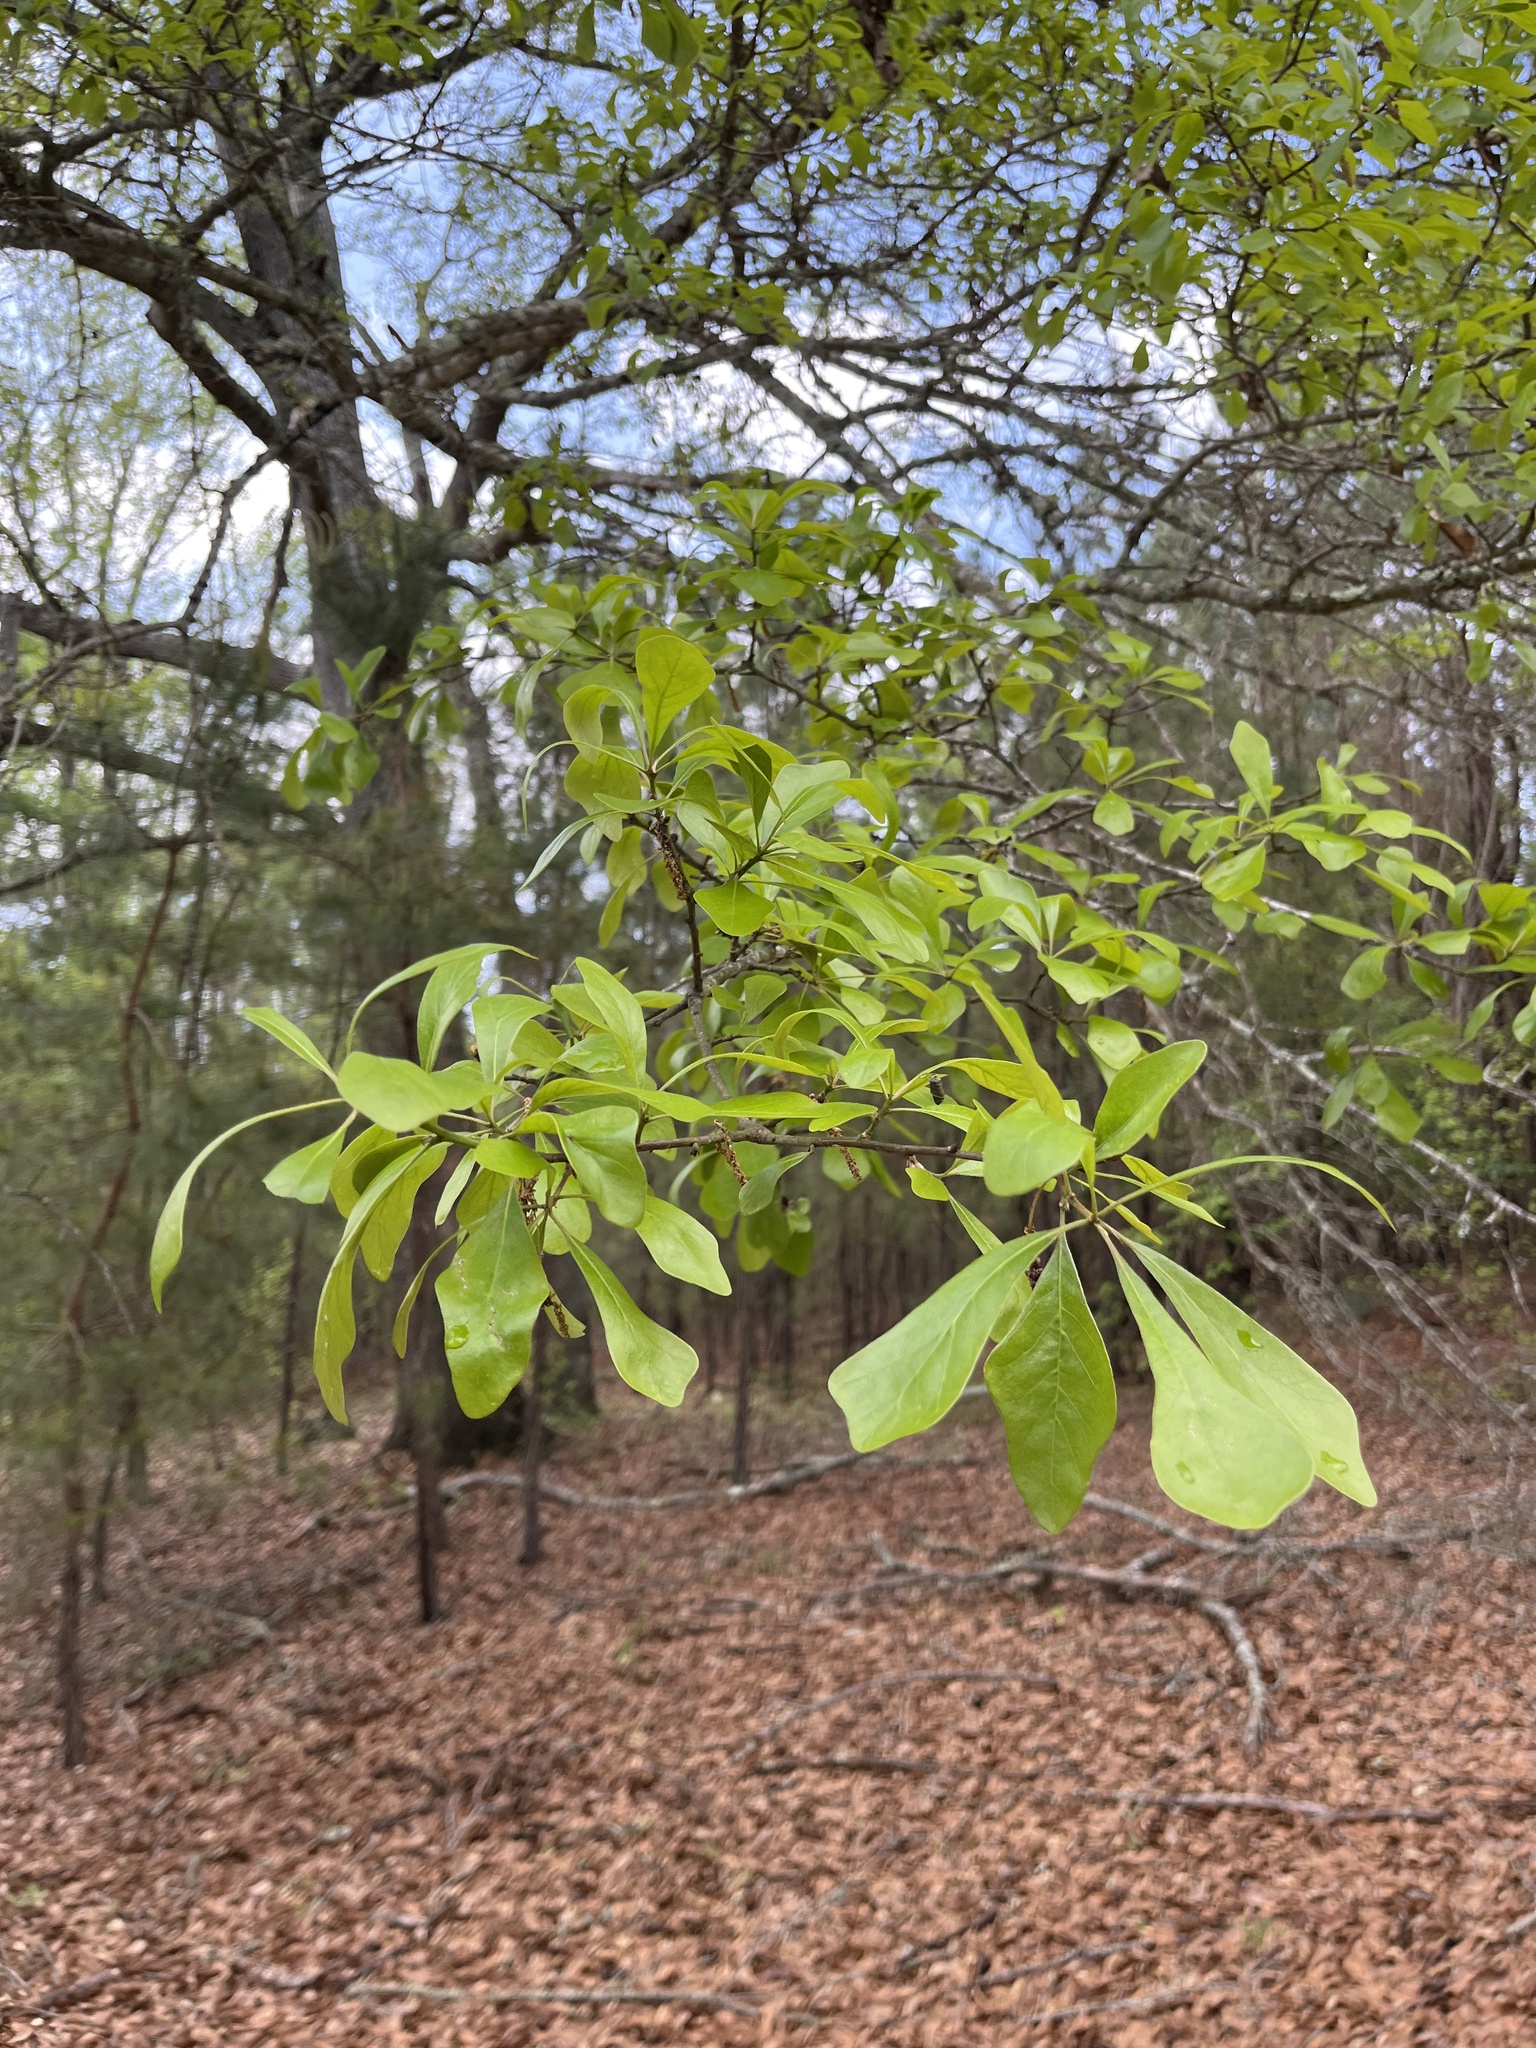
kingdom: Plantae
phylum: Tracheophyta
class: Magnoliopsida
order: Fagales
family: Fagaceae
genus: Quercus
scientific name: Quercus nigra
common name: Water oak
